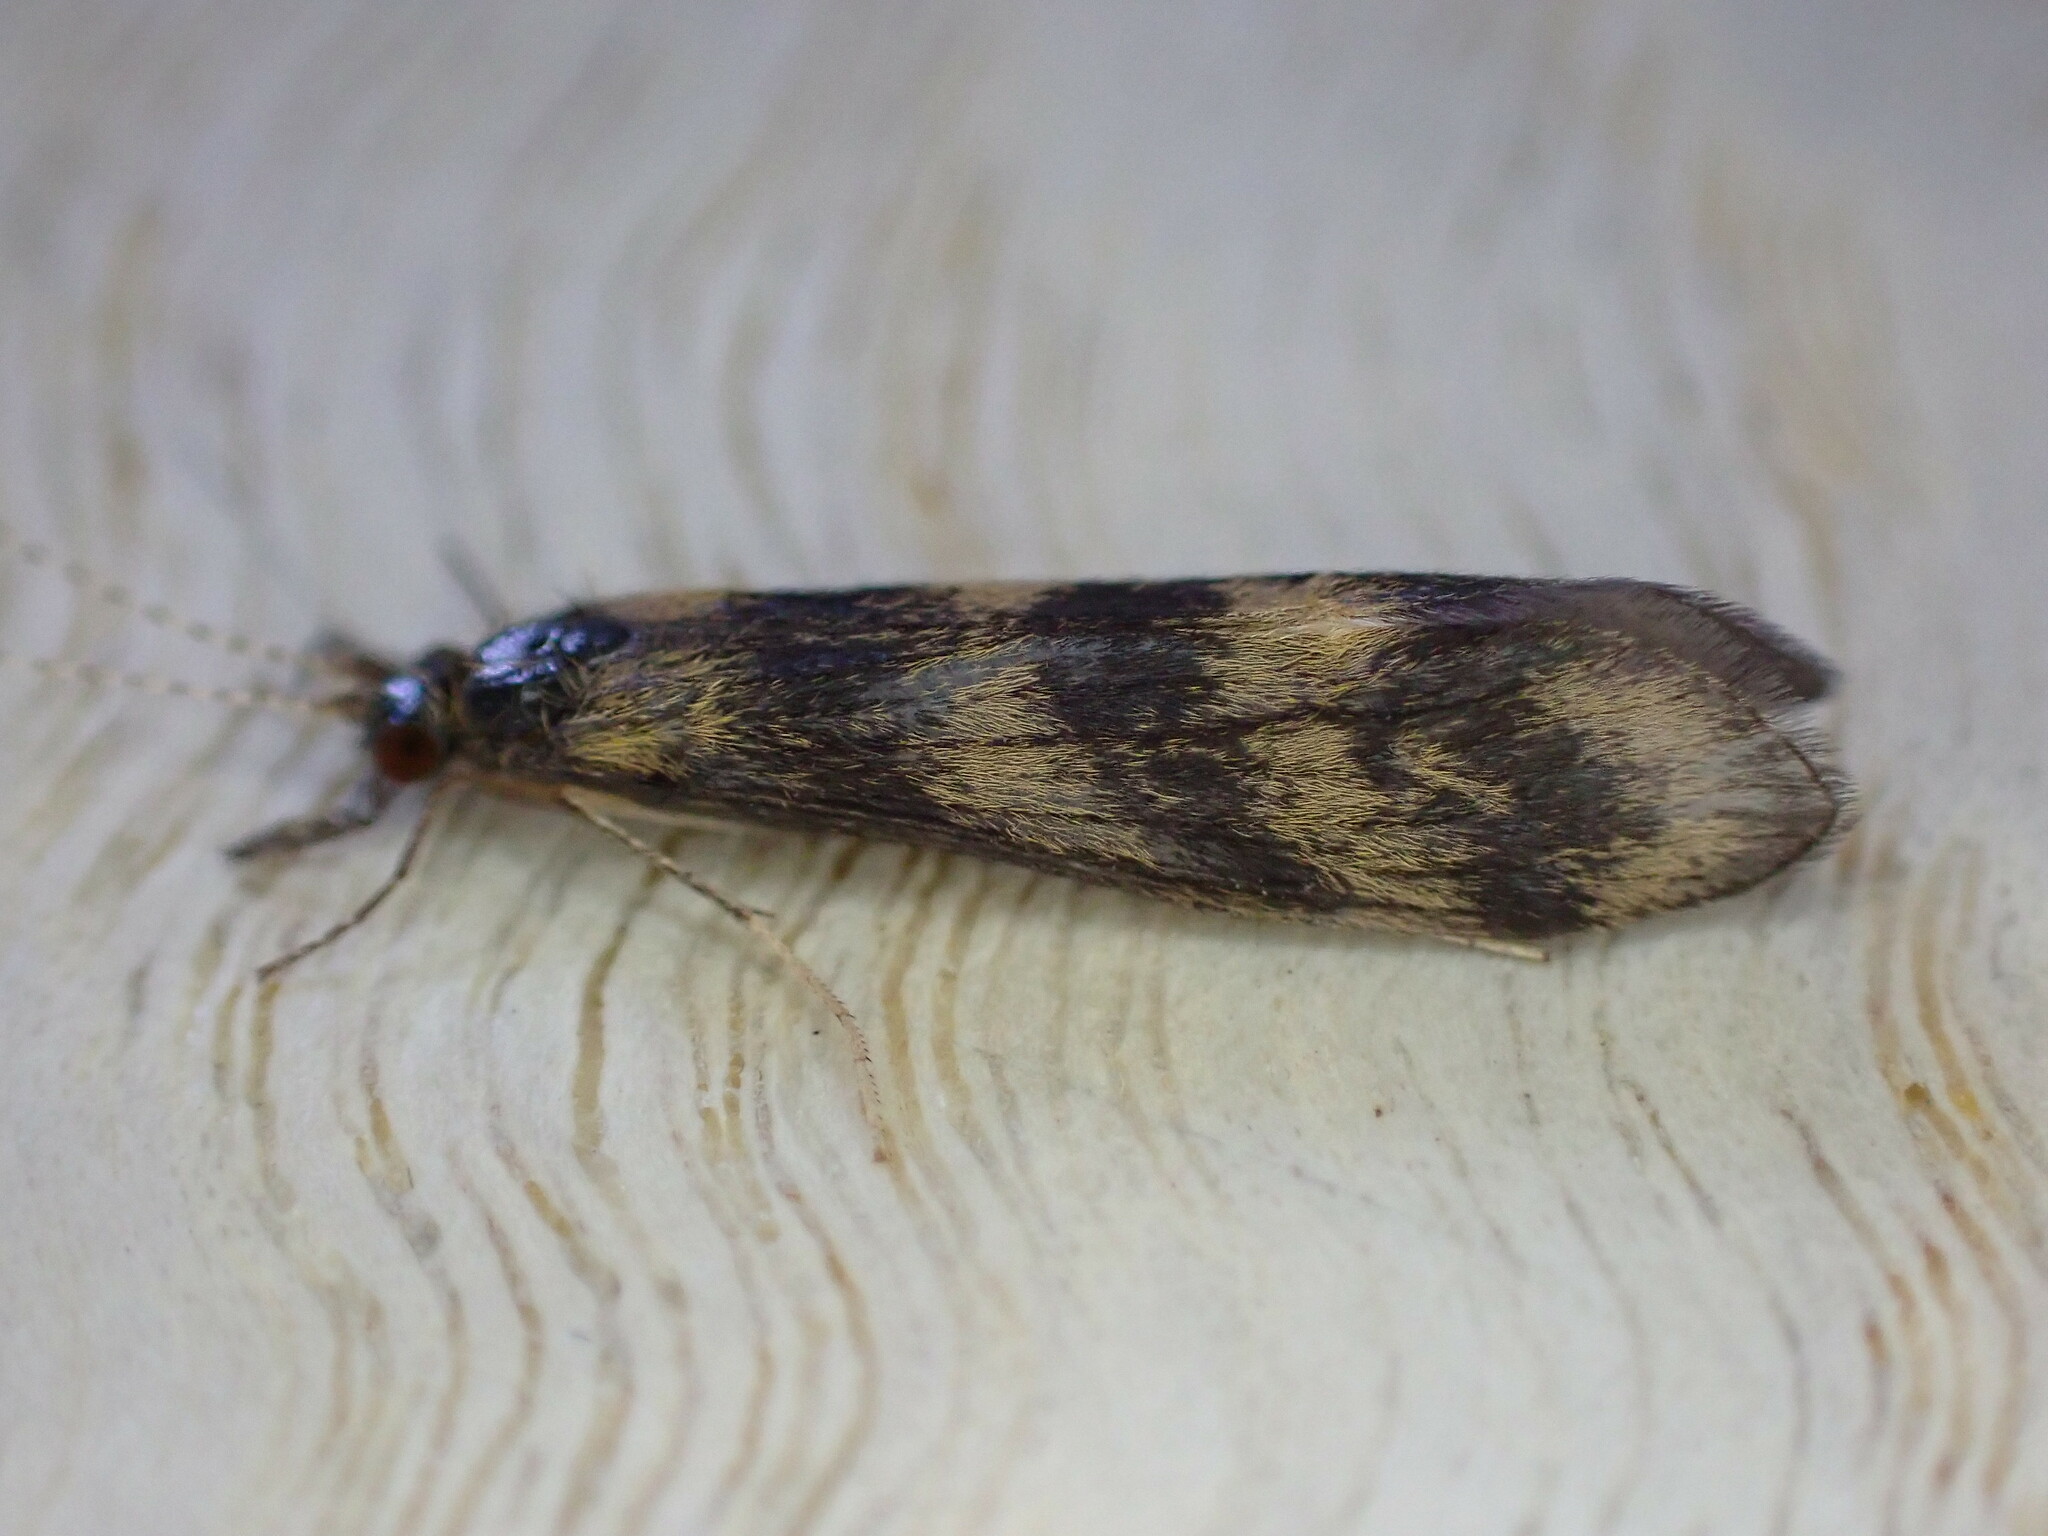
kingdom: Animalia
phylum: Arthropoda
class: Insecta
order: Trichoptera
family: Leptoceridae
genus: Mystacides
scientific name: Mystacides longicornis
